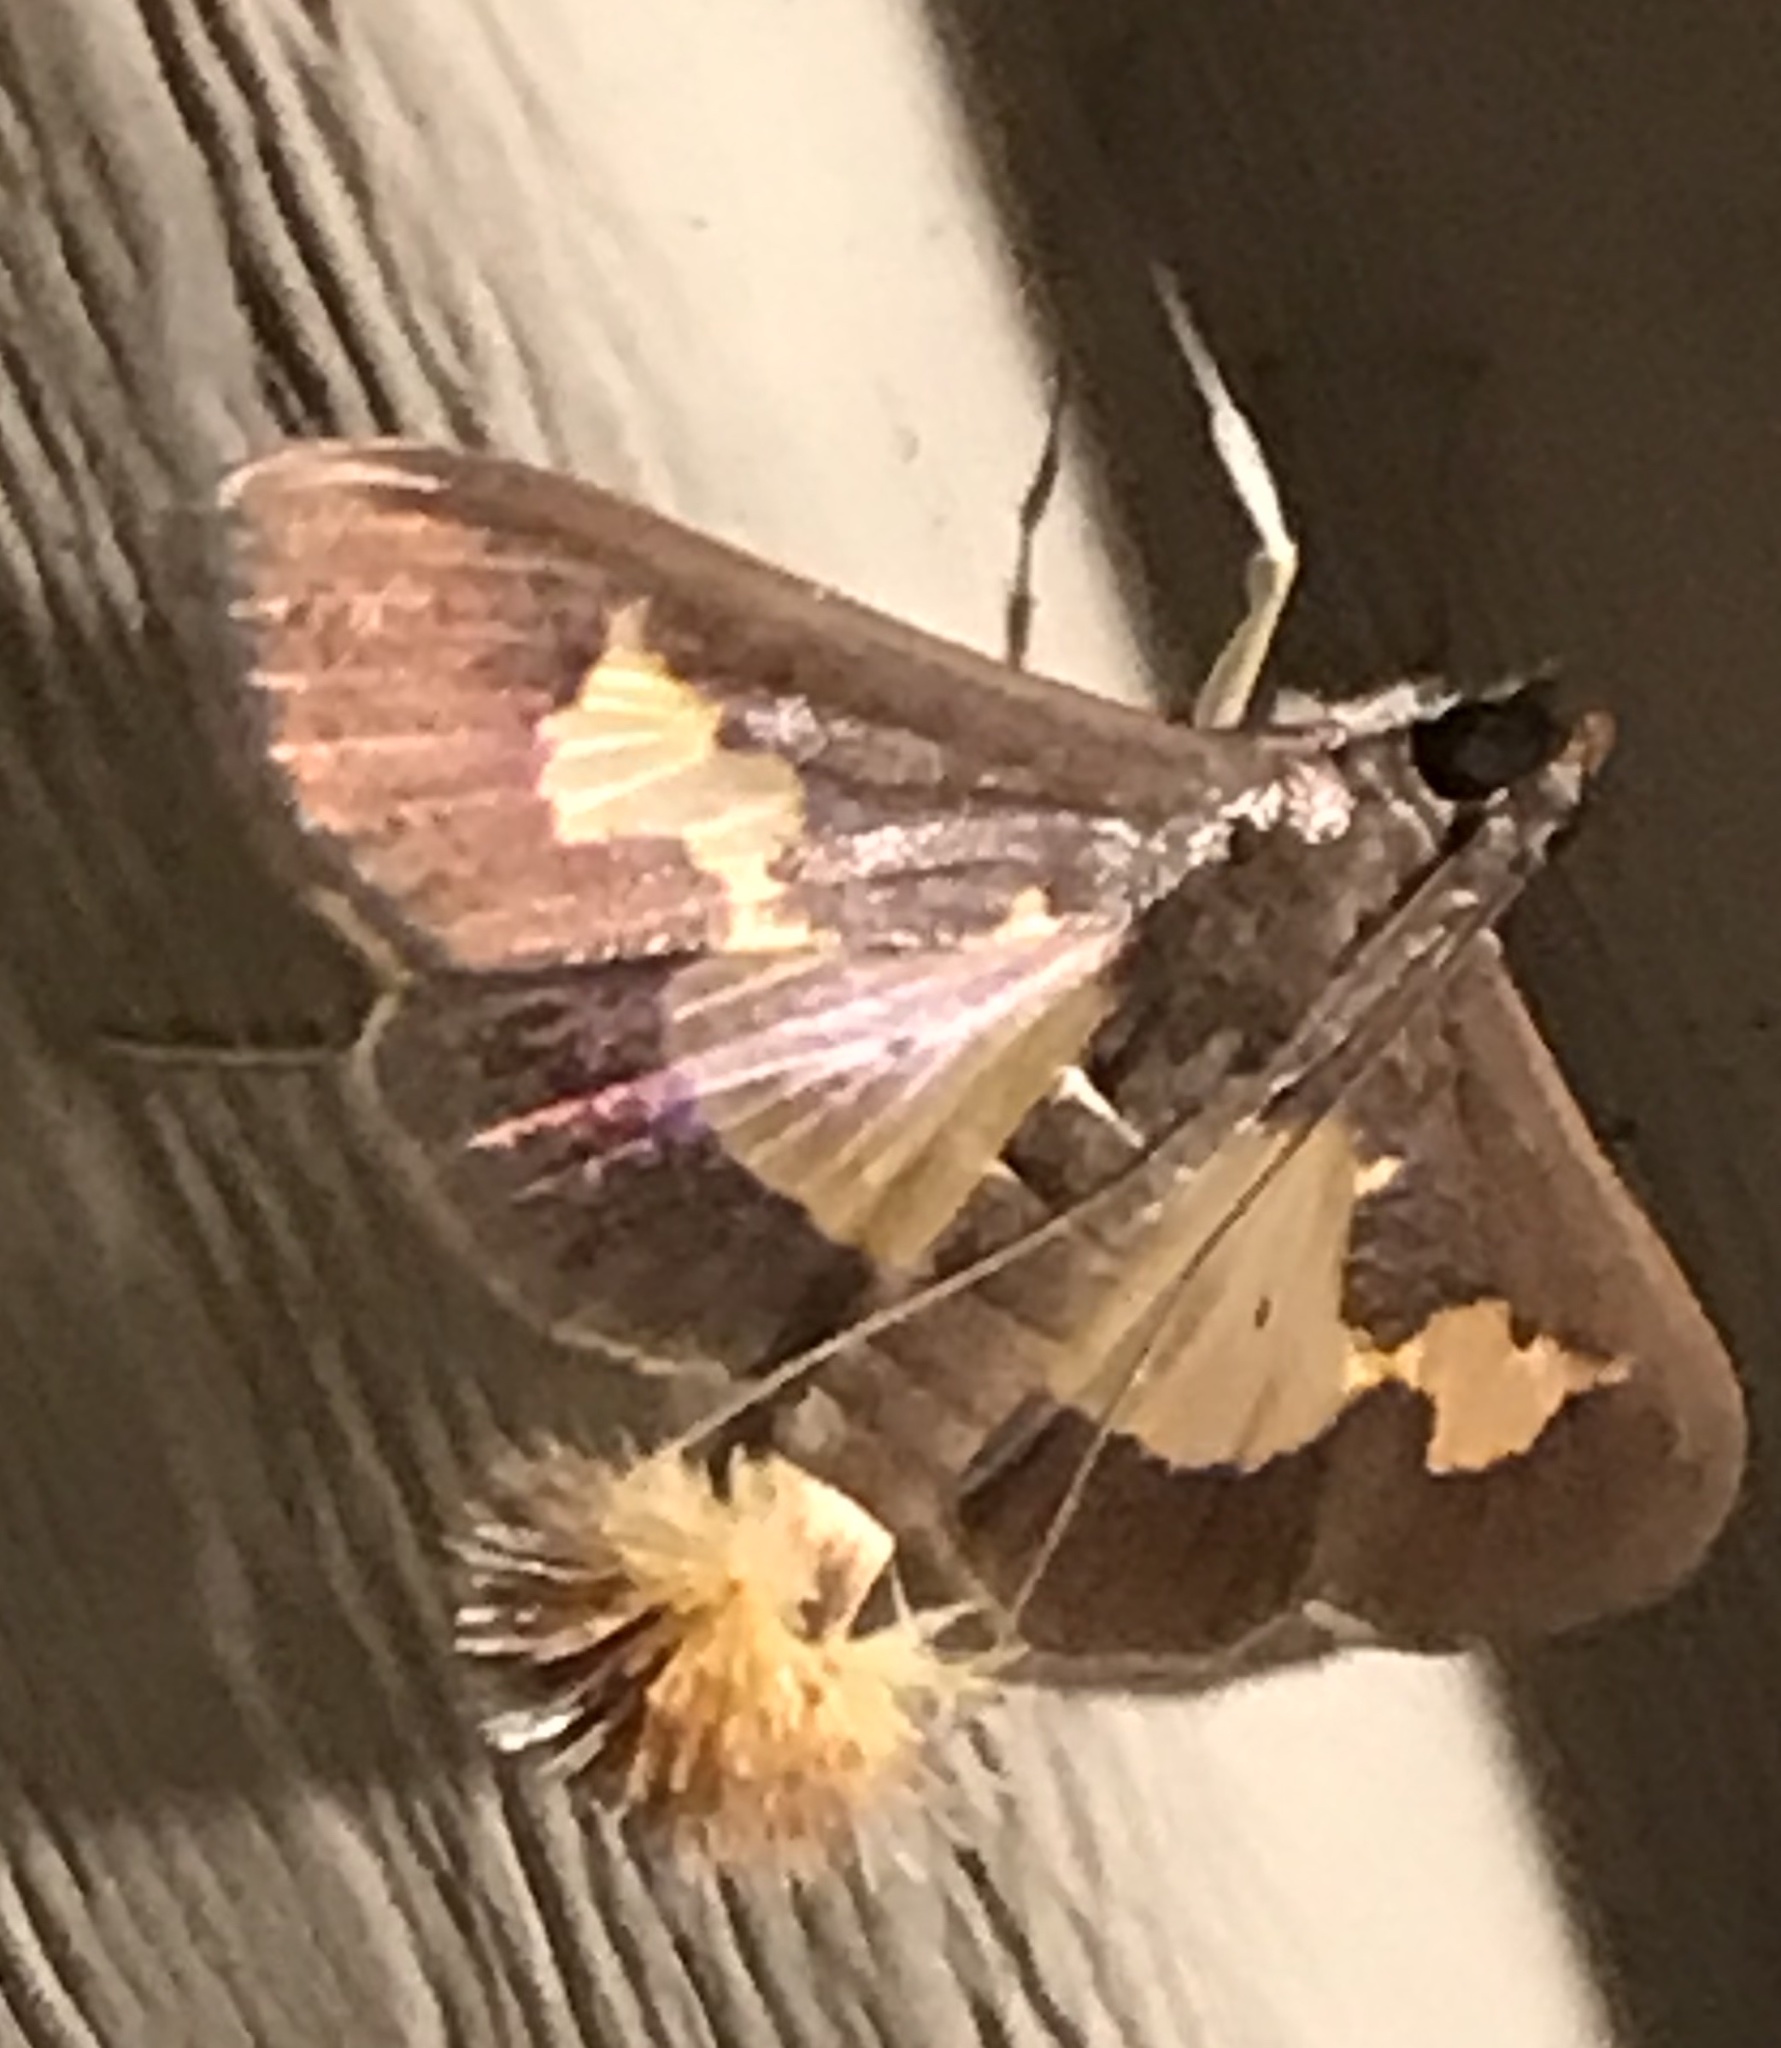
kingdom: Animalia
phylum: Arthropoda
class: Insecta
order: Lepidoptera
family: Crambidae
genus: Cryptographis
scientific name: Cryptographis nitidalis
